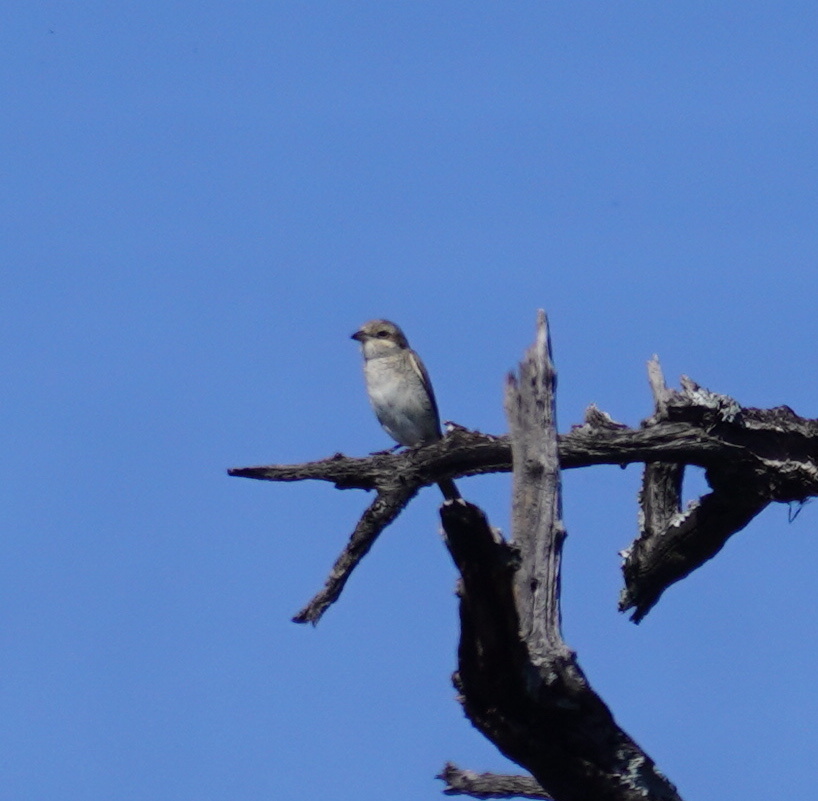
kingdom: Animalia
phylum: Chordata
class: Aves
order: Passeriformes
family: Laniidae
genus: Lanius
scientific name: Lanius collaris
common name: Southern fiscal
